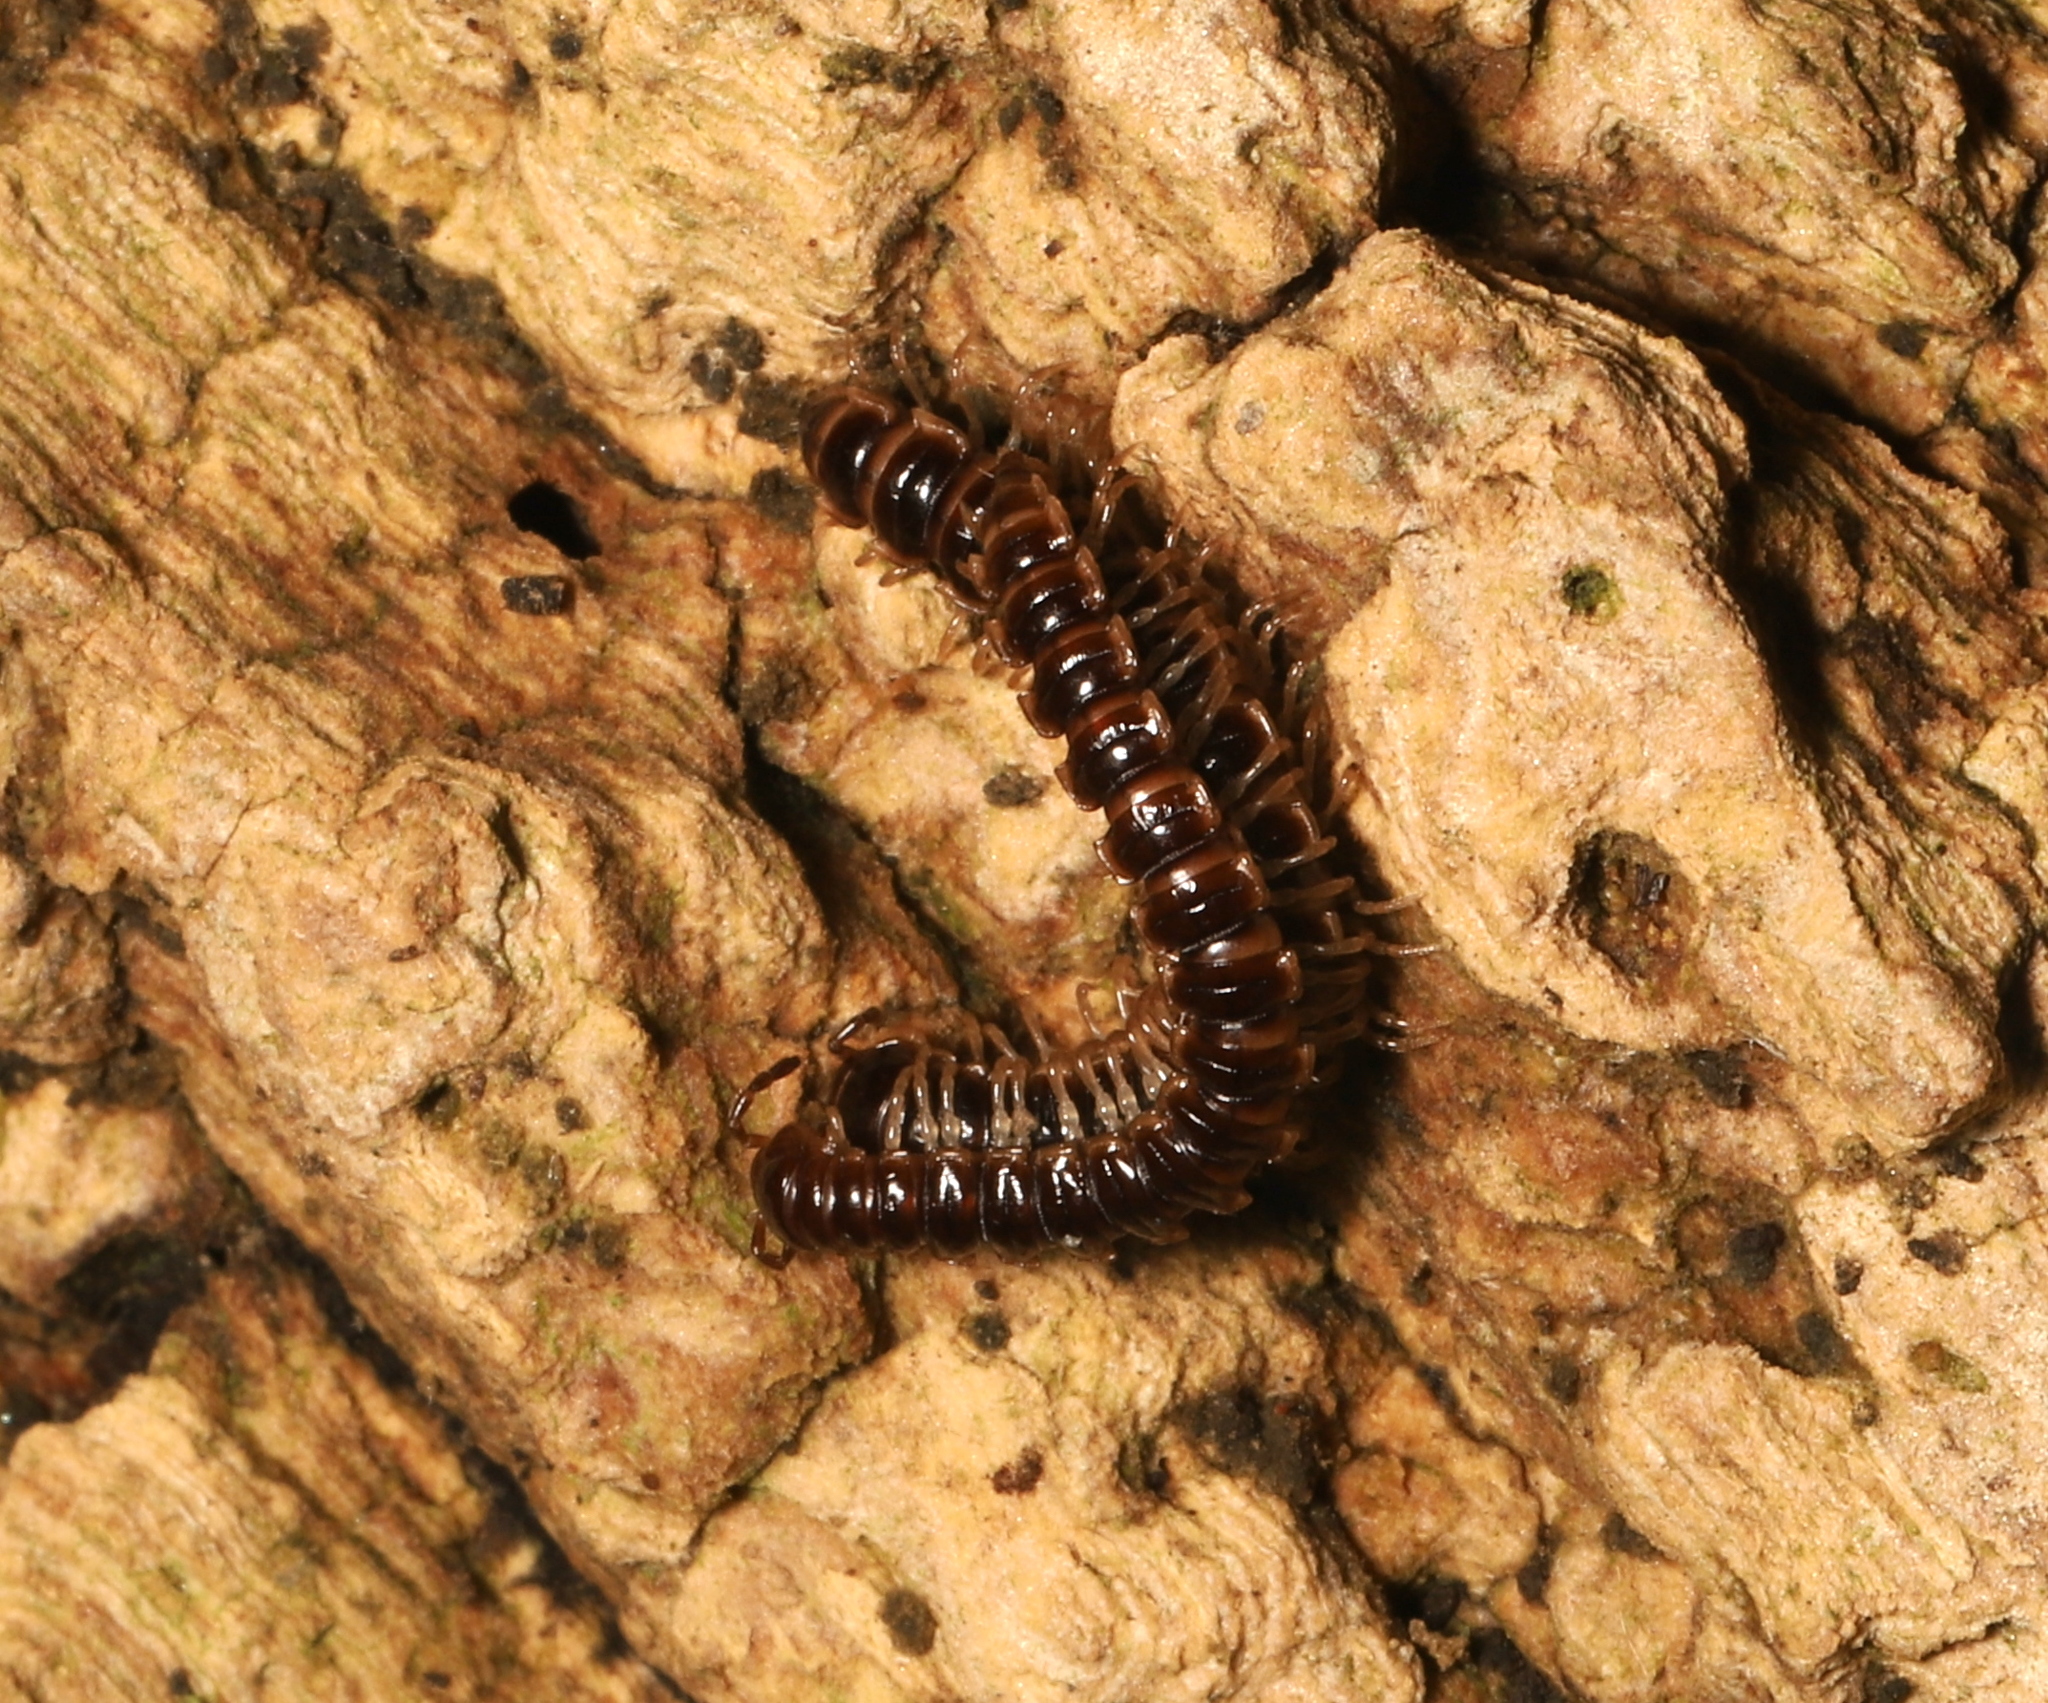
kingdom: Animalia
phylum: Arthropoda
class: Diplopoda
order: Polydesmida
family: Paradoxosomatidae
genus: Oxidus
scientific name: Oxidus gracilis
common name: Greenhouse millipede
